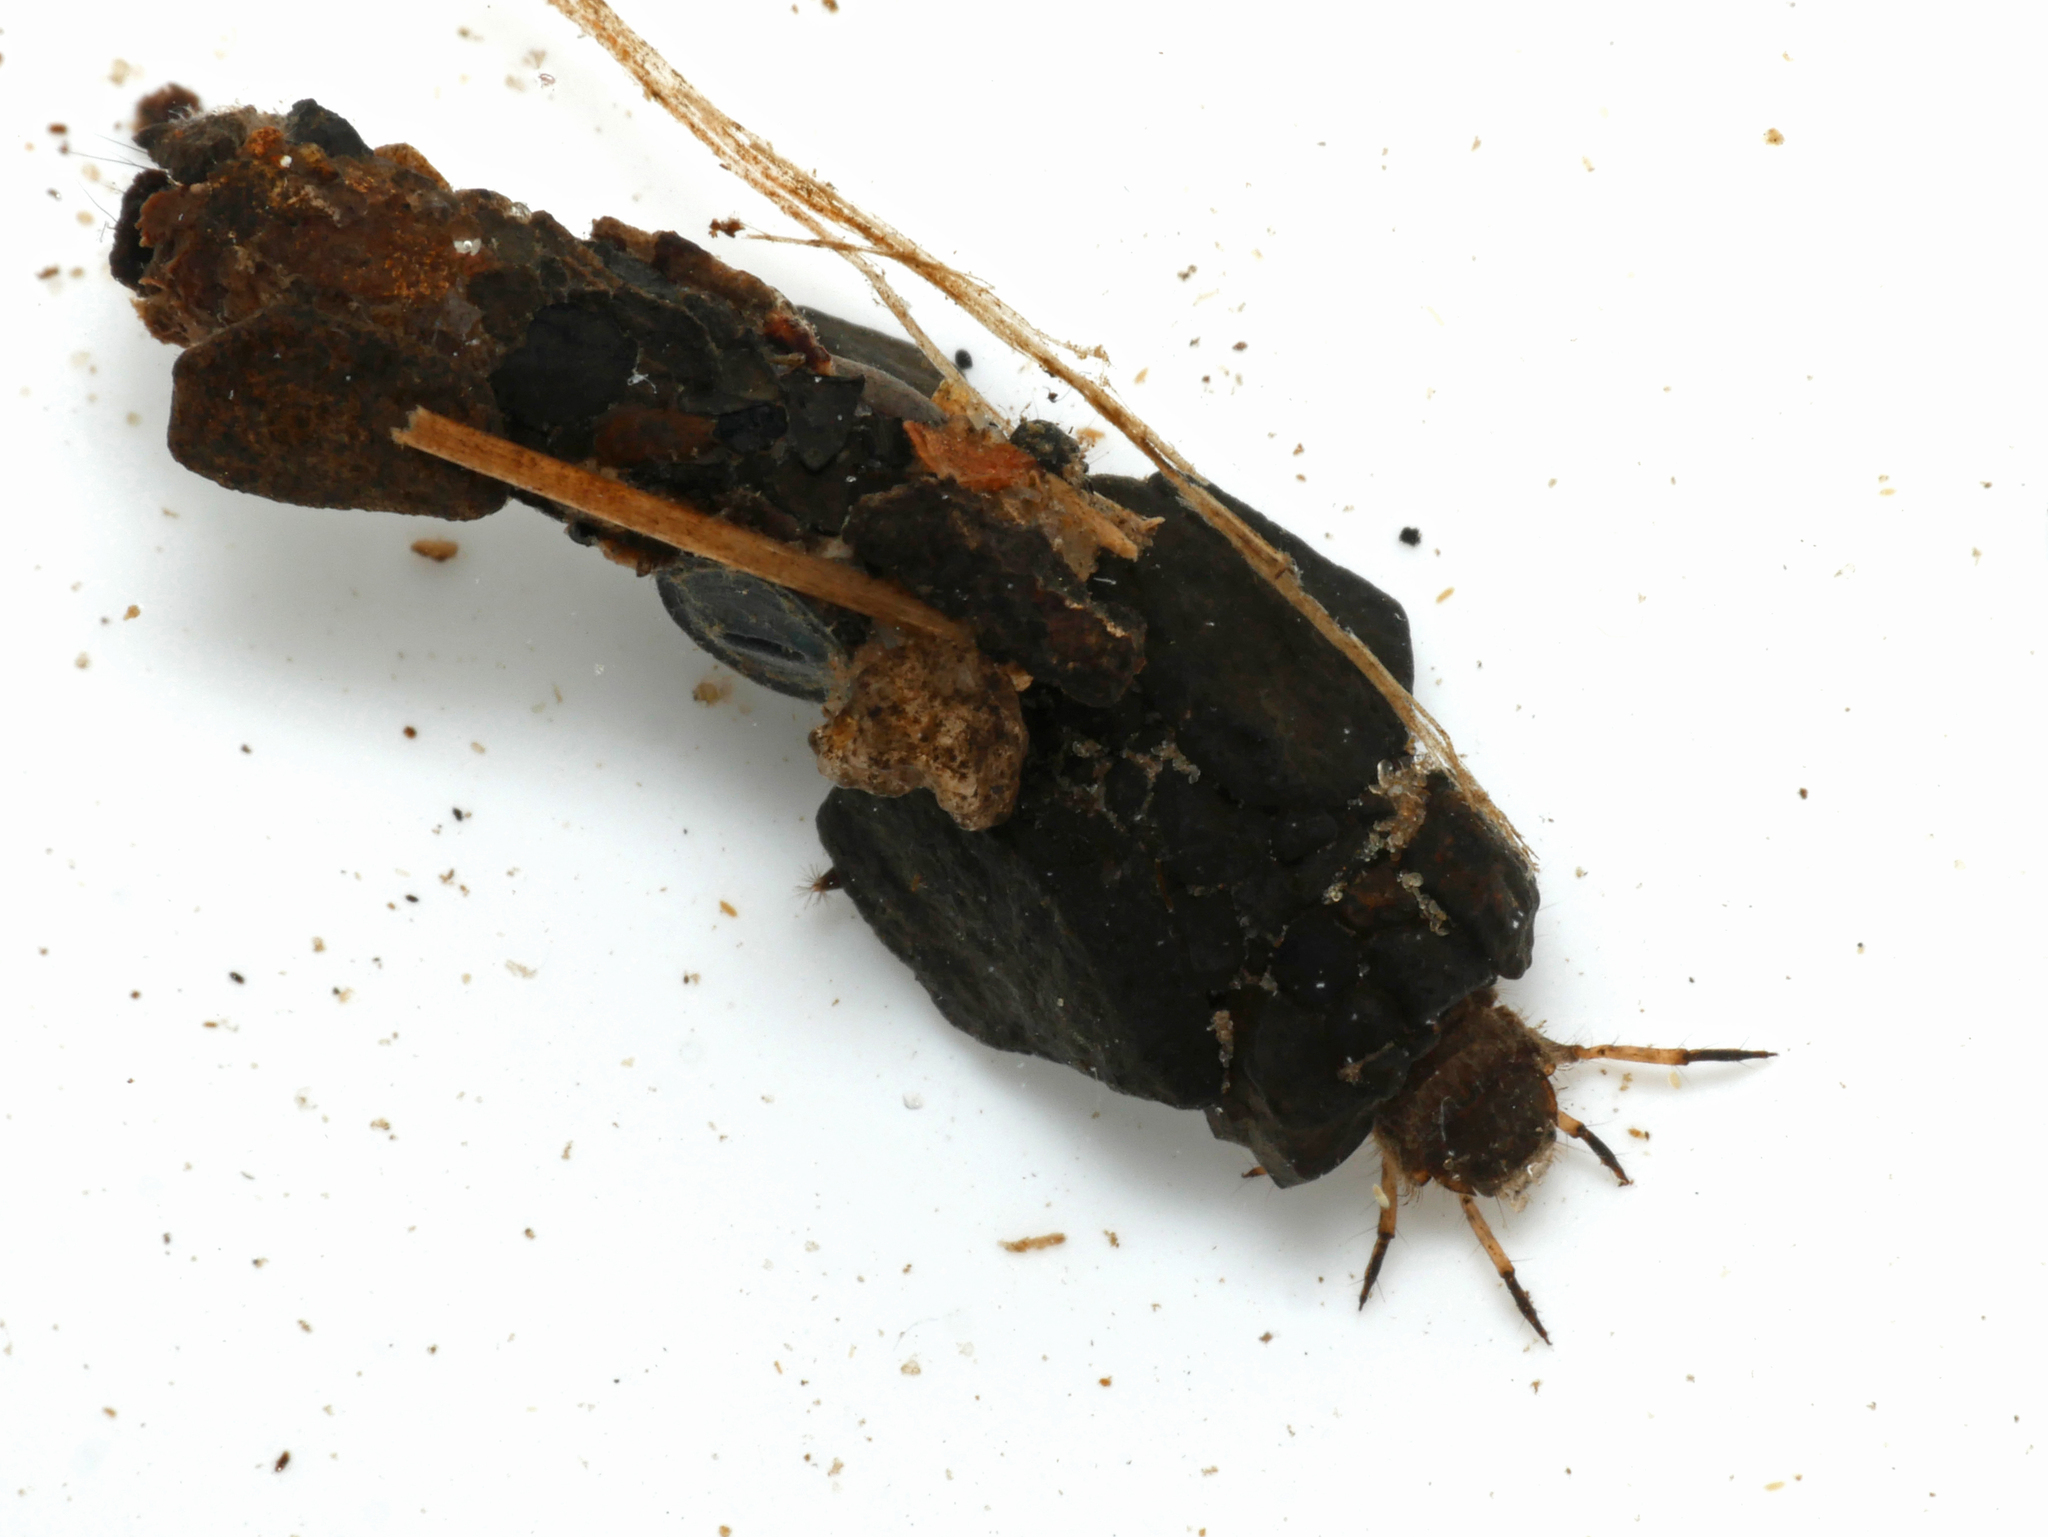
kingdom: Animalia
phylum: Arthropoda
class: Insecta
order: Trichoptera
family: Goeridae
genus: Goera
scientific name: Goera pilosa
